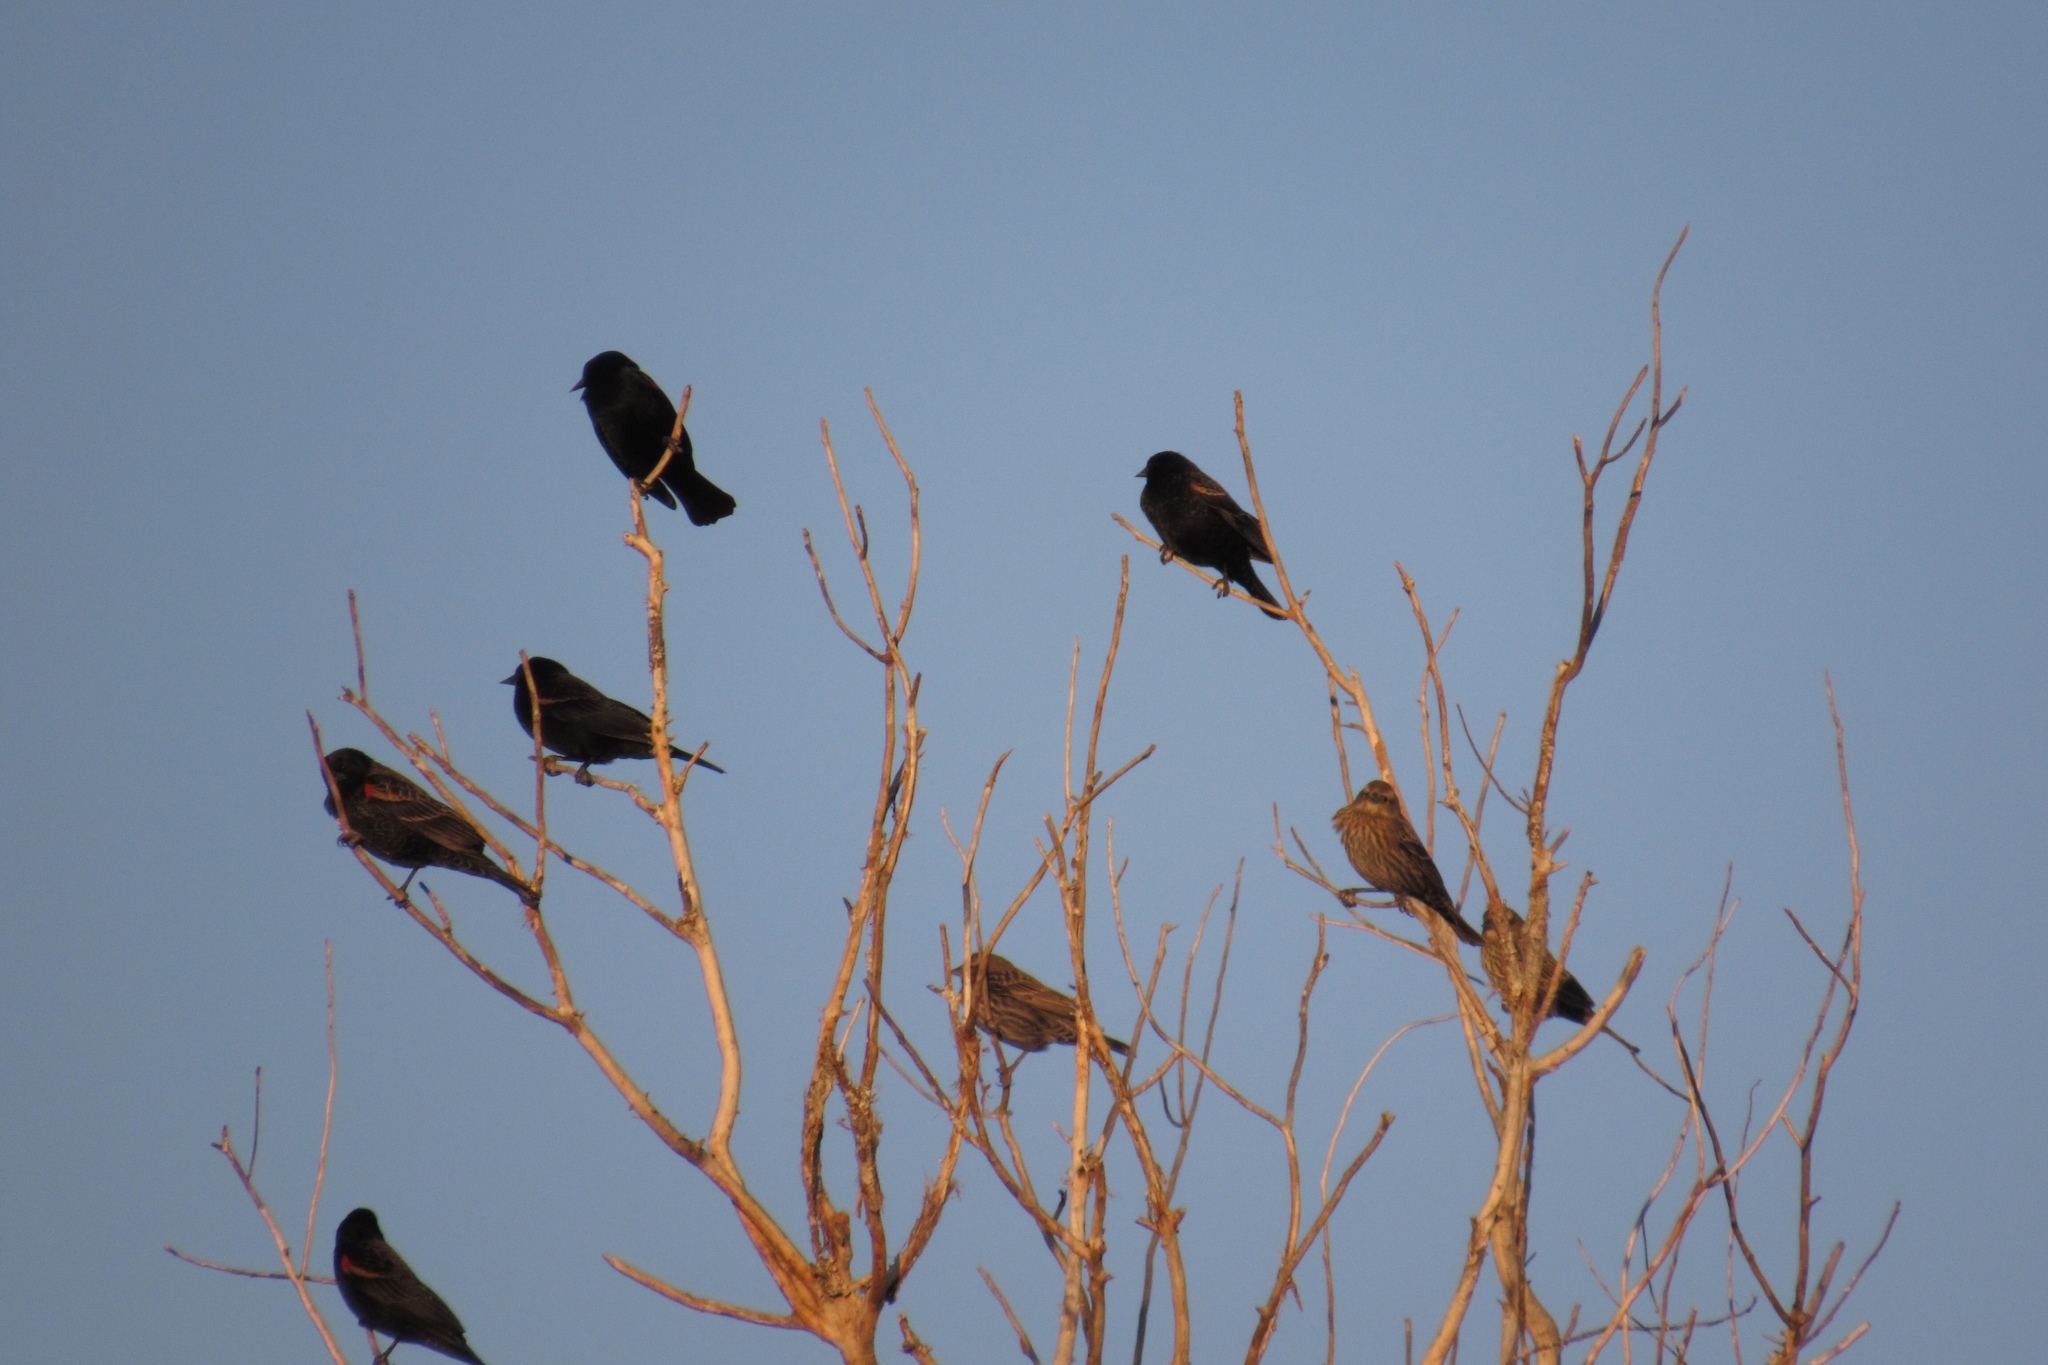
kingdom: Animalia
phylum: Chordata
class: Aves
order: Passeriformes
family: Icteridae
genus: Agelaius
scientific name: Agelaius phoeniceus
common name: Red-winged blackbird
